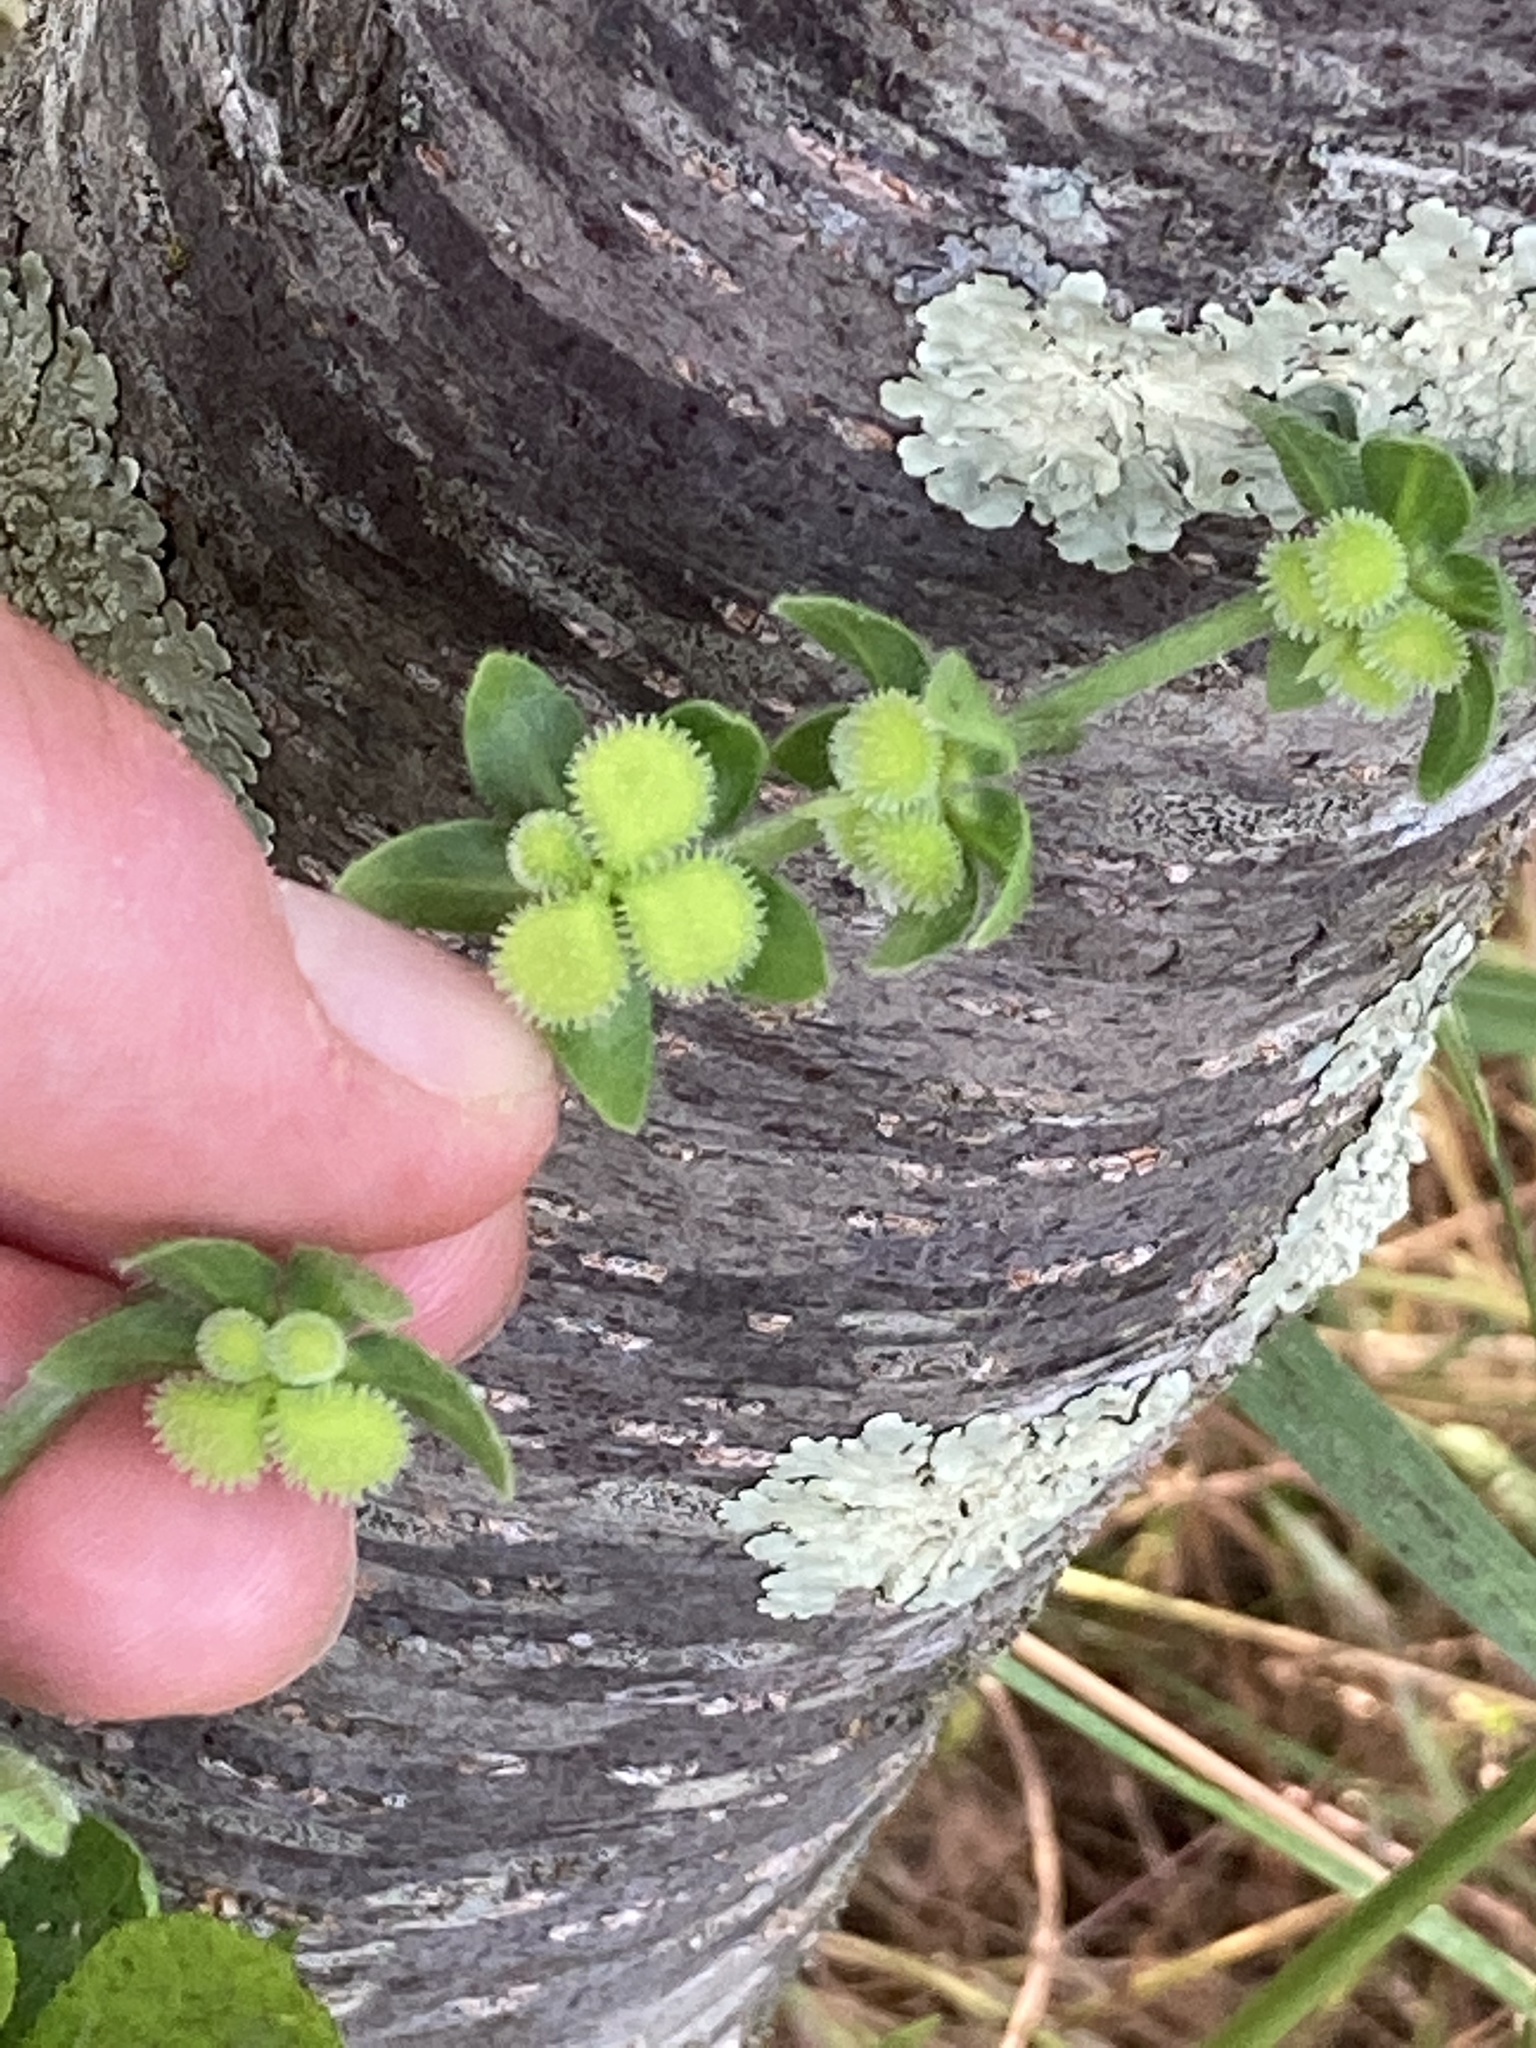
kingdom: Plantae
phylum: Tracheophyta
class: Magnoliopsida
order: Boraginales
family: Boraginaceae
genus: Cynoglossum
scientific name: Cynoglossum creticum
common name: Blue hound's tongue
